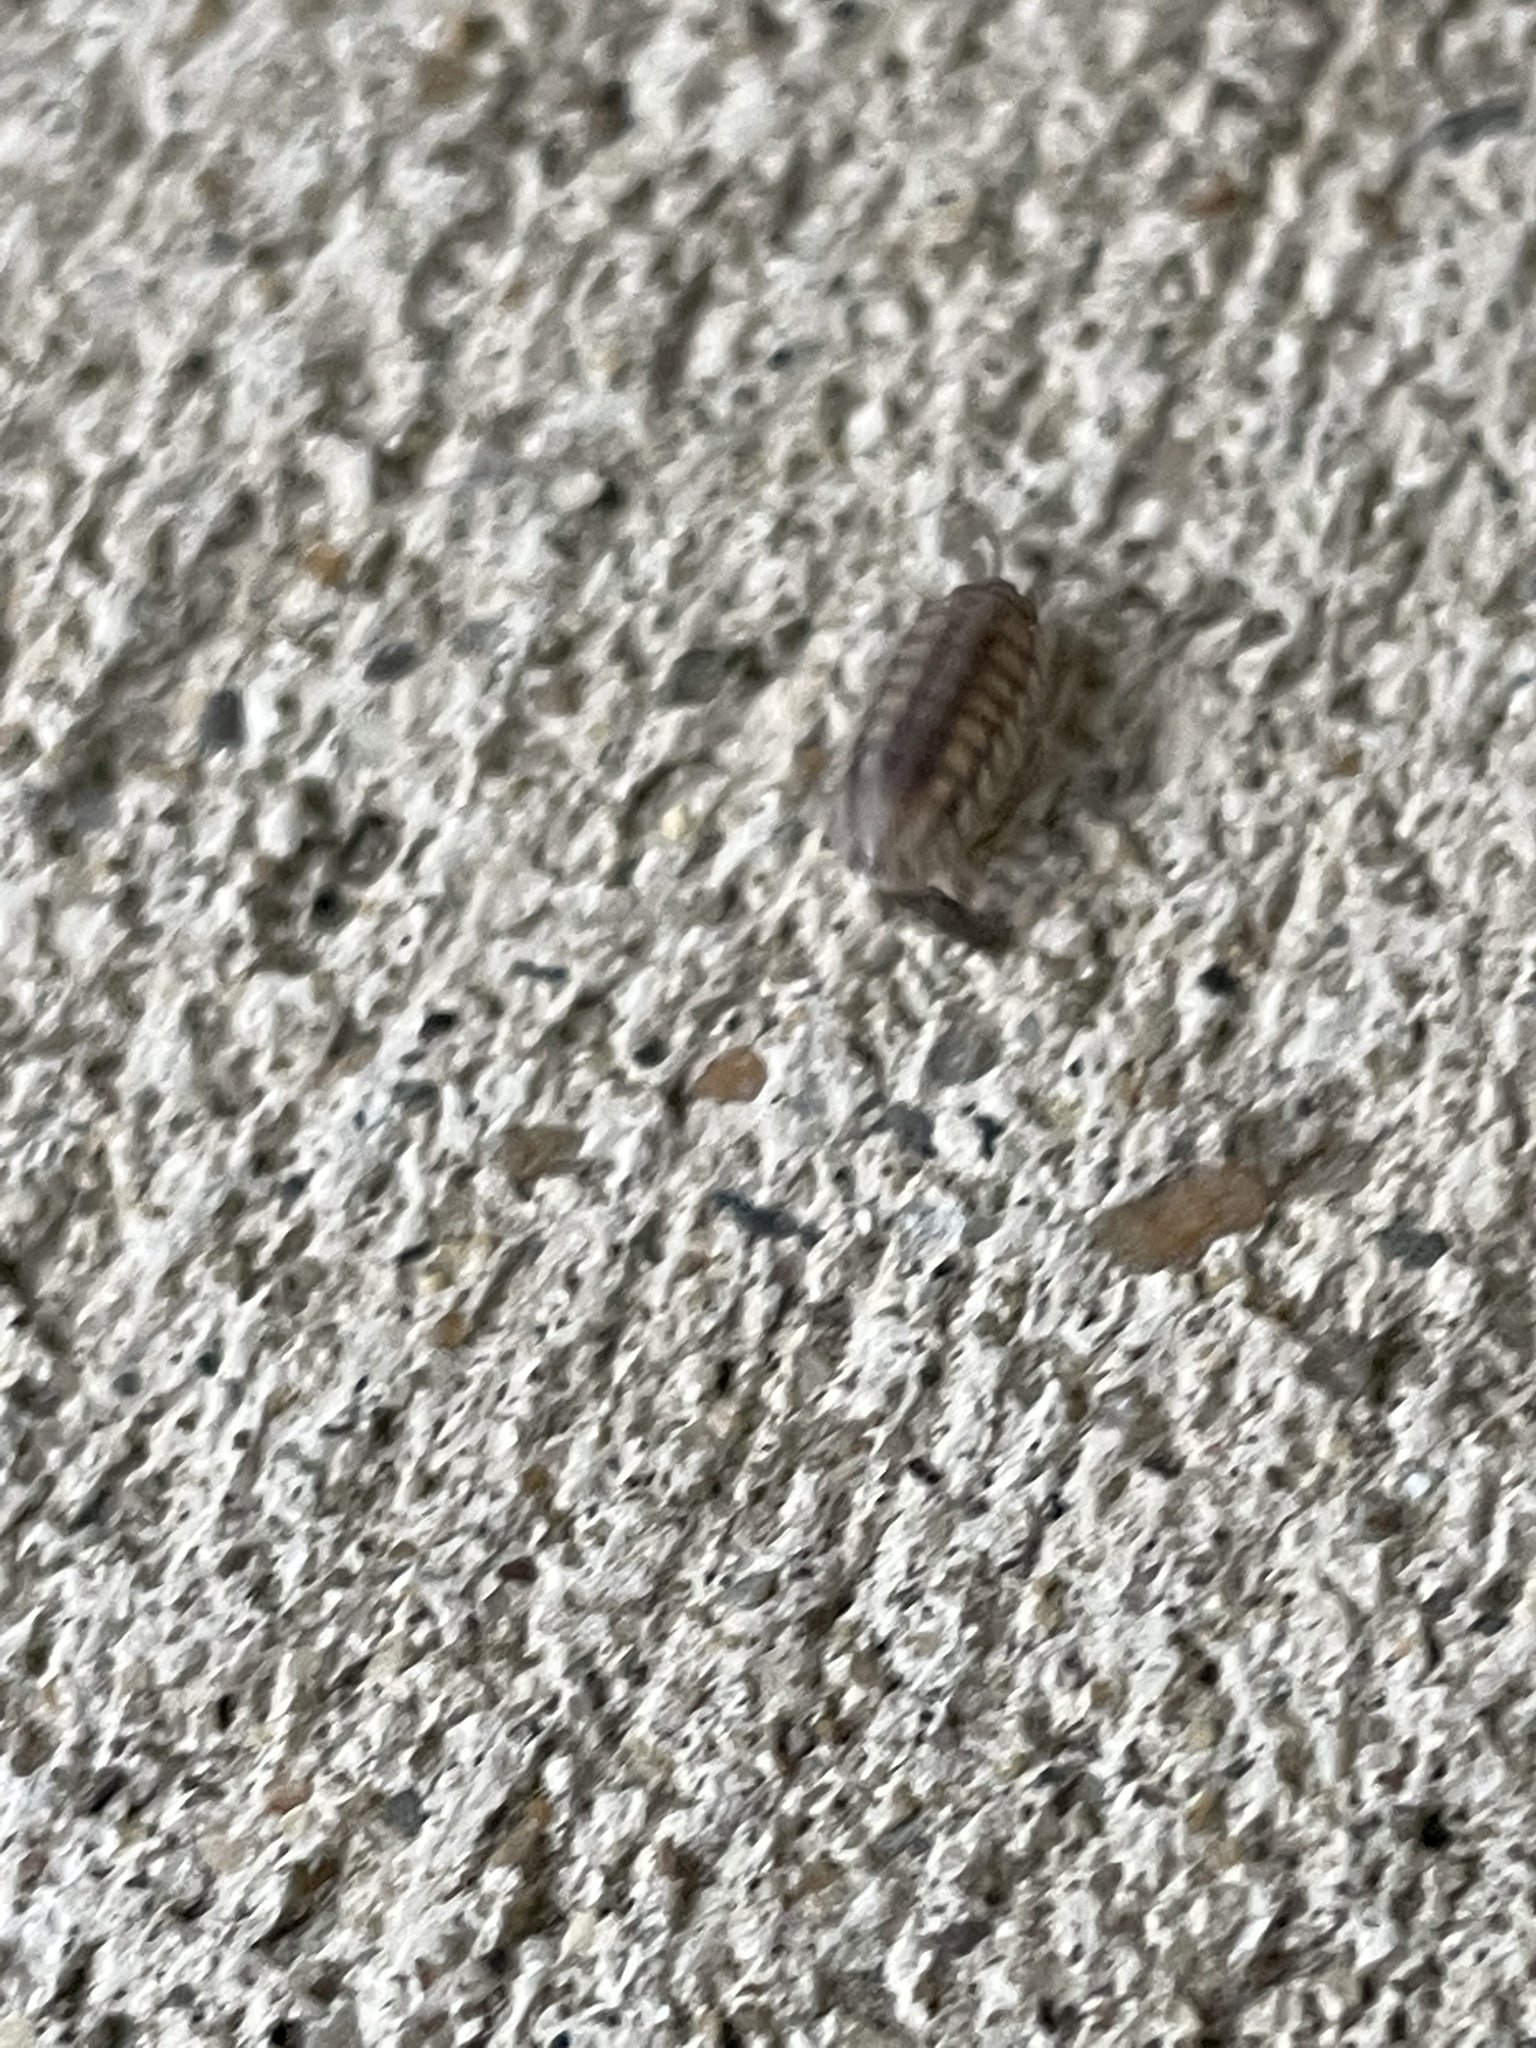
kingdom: Animalia
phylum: Arthropoda
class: Malacostraca
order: Isopoda
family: Armadillidiidae
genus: Armadillidium
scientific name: Armadillidium nasatum
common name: Isopod
